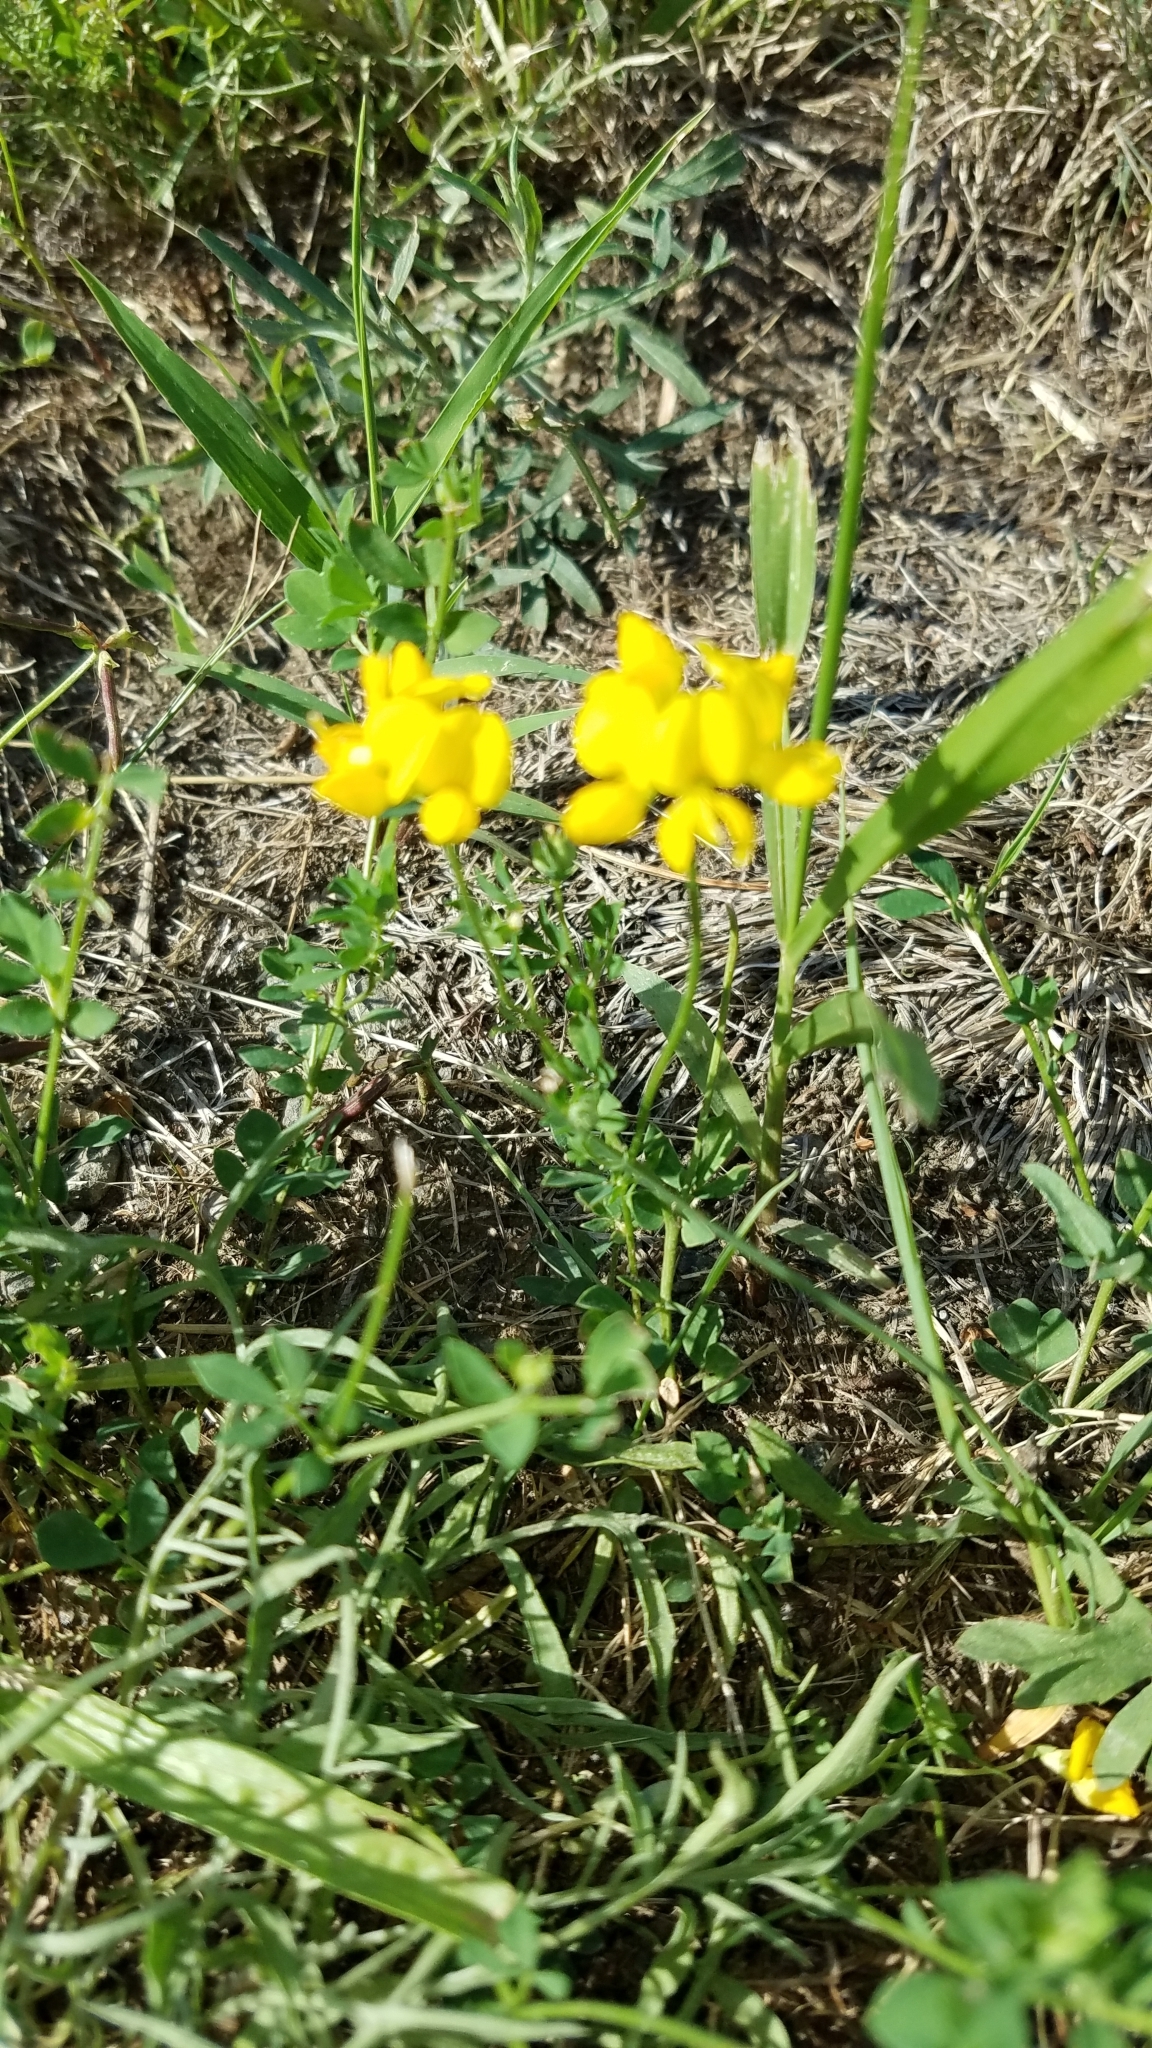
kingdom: Plantae
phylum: Tracheophyta
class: Magnoliopsida
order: Fabales
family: Fabaceae
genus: Lotus
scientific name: Lotus corniculatus
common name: Common bird's-foot-trefoil
